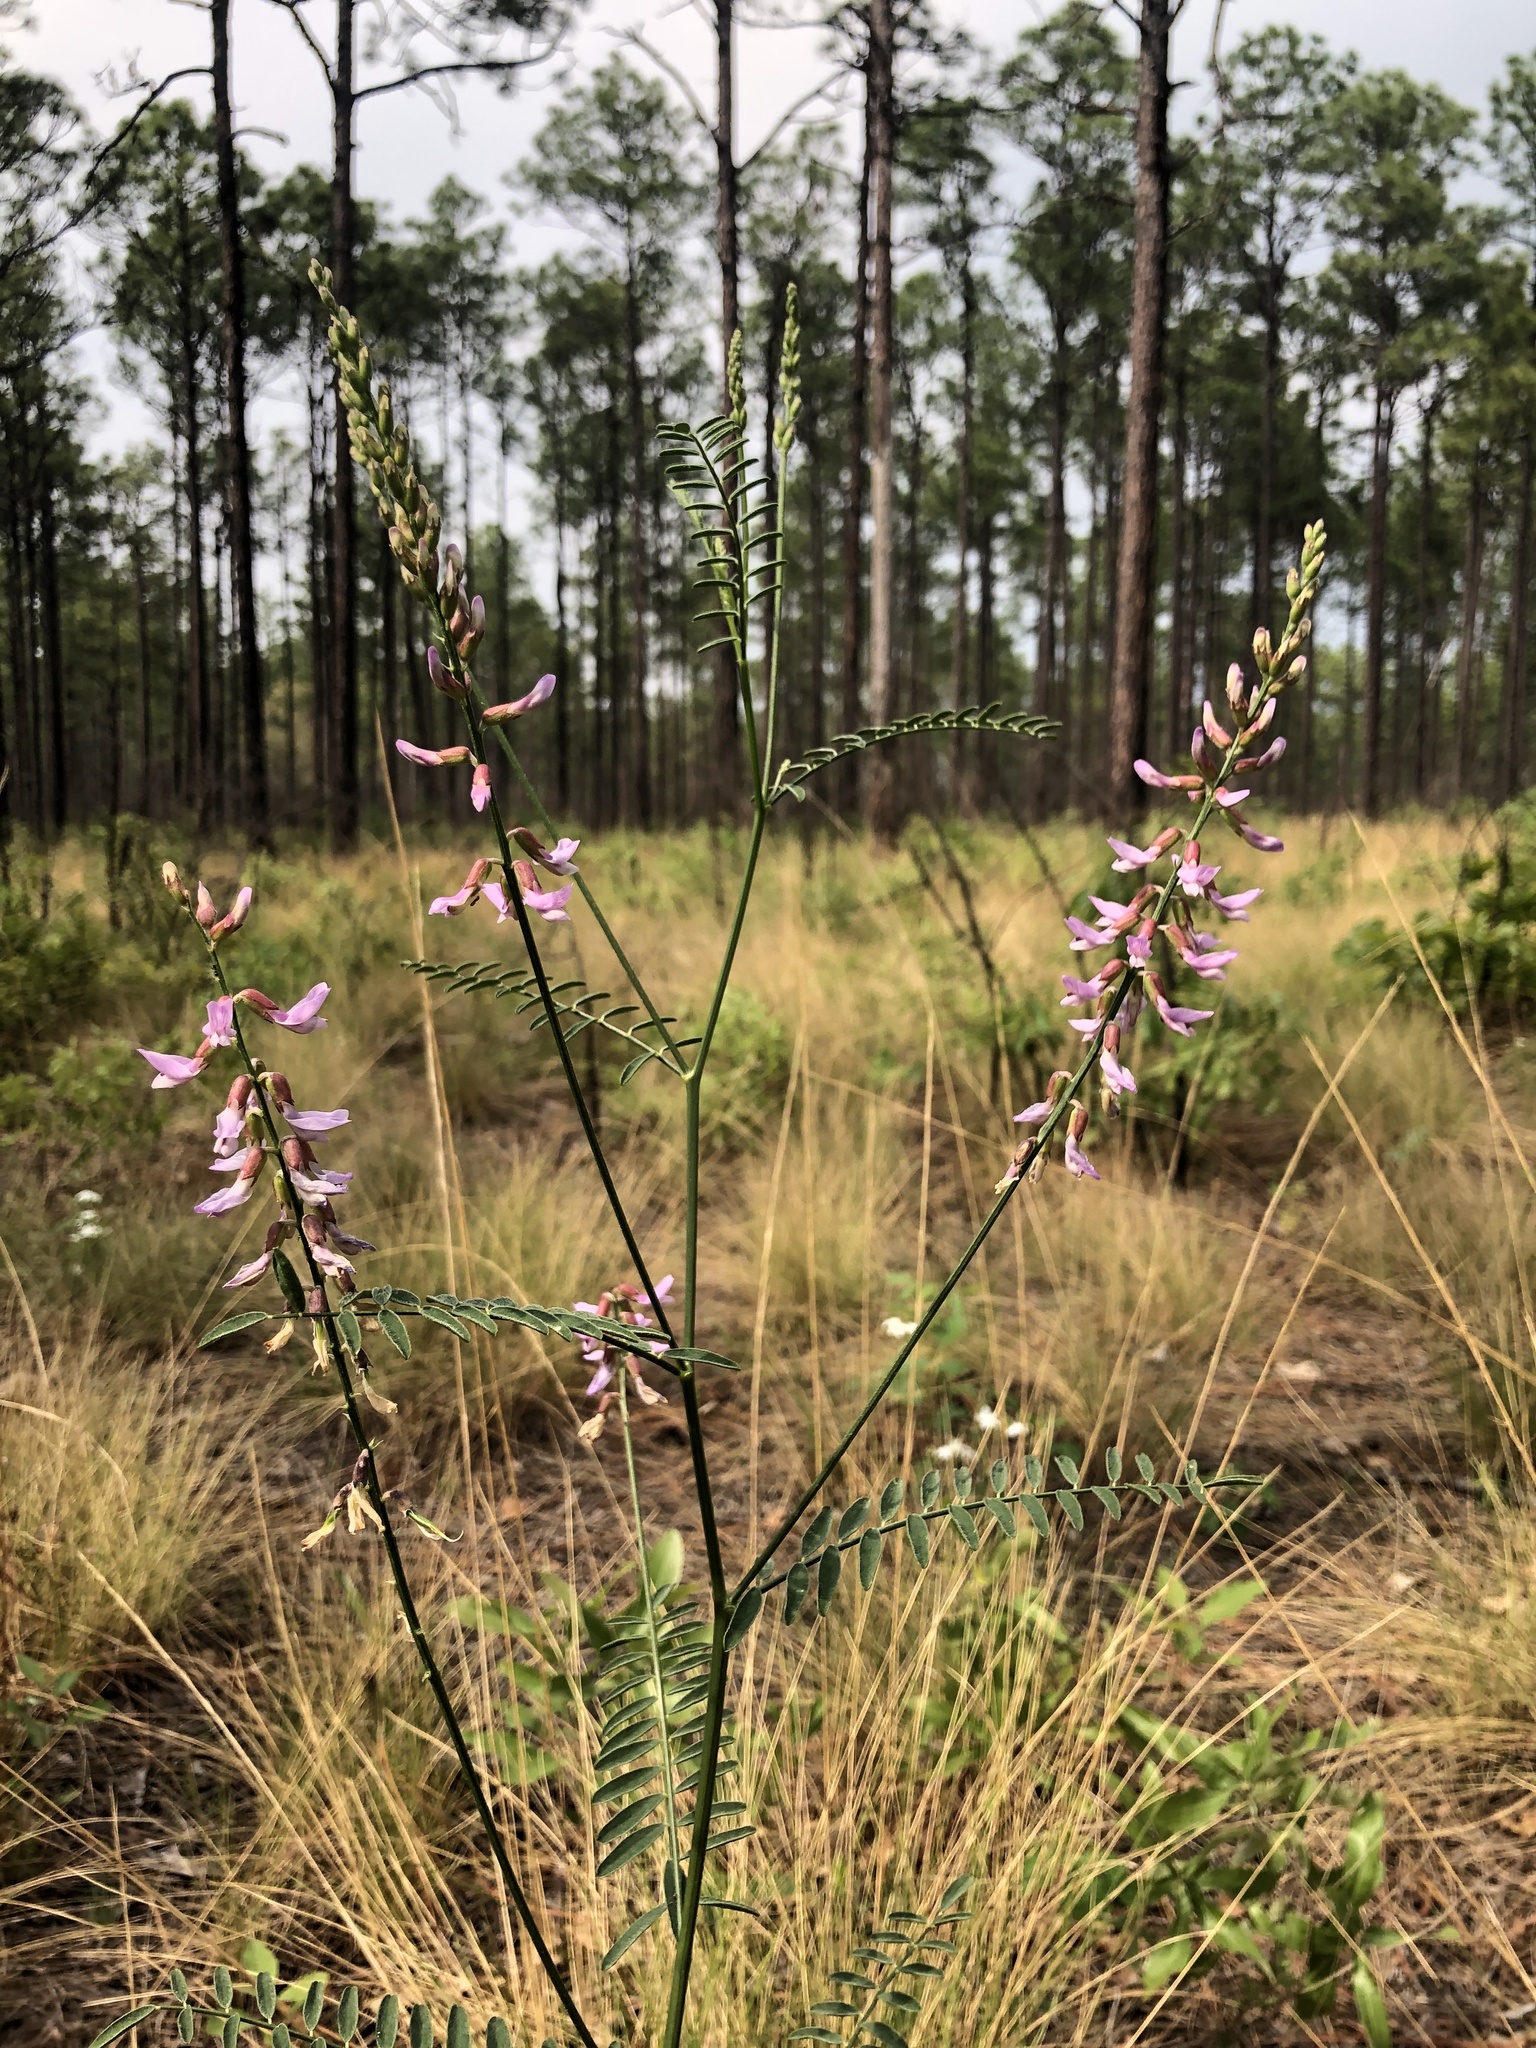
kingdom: Plantae
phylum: Tracheophyta
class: Magnoliopsida
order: Fabales
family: Fabaceae
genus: Astragalus
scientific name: Astragalus michauxii
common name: Michaux milk-vetch
